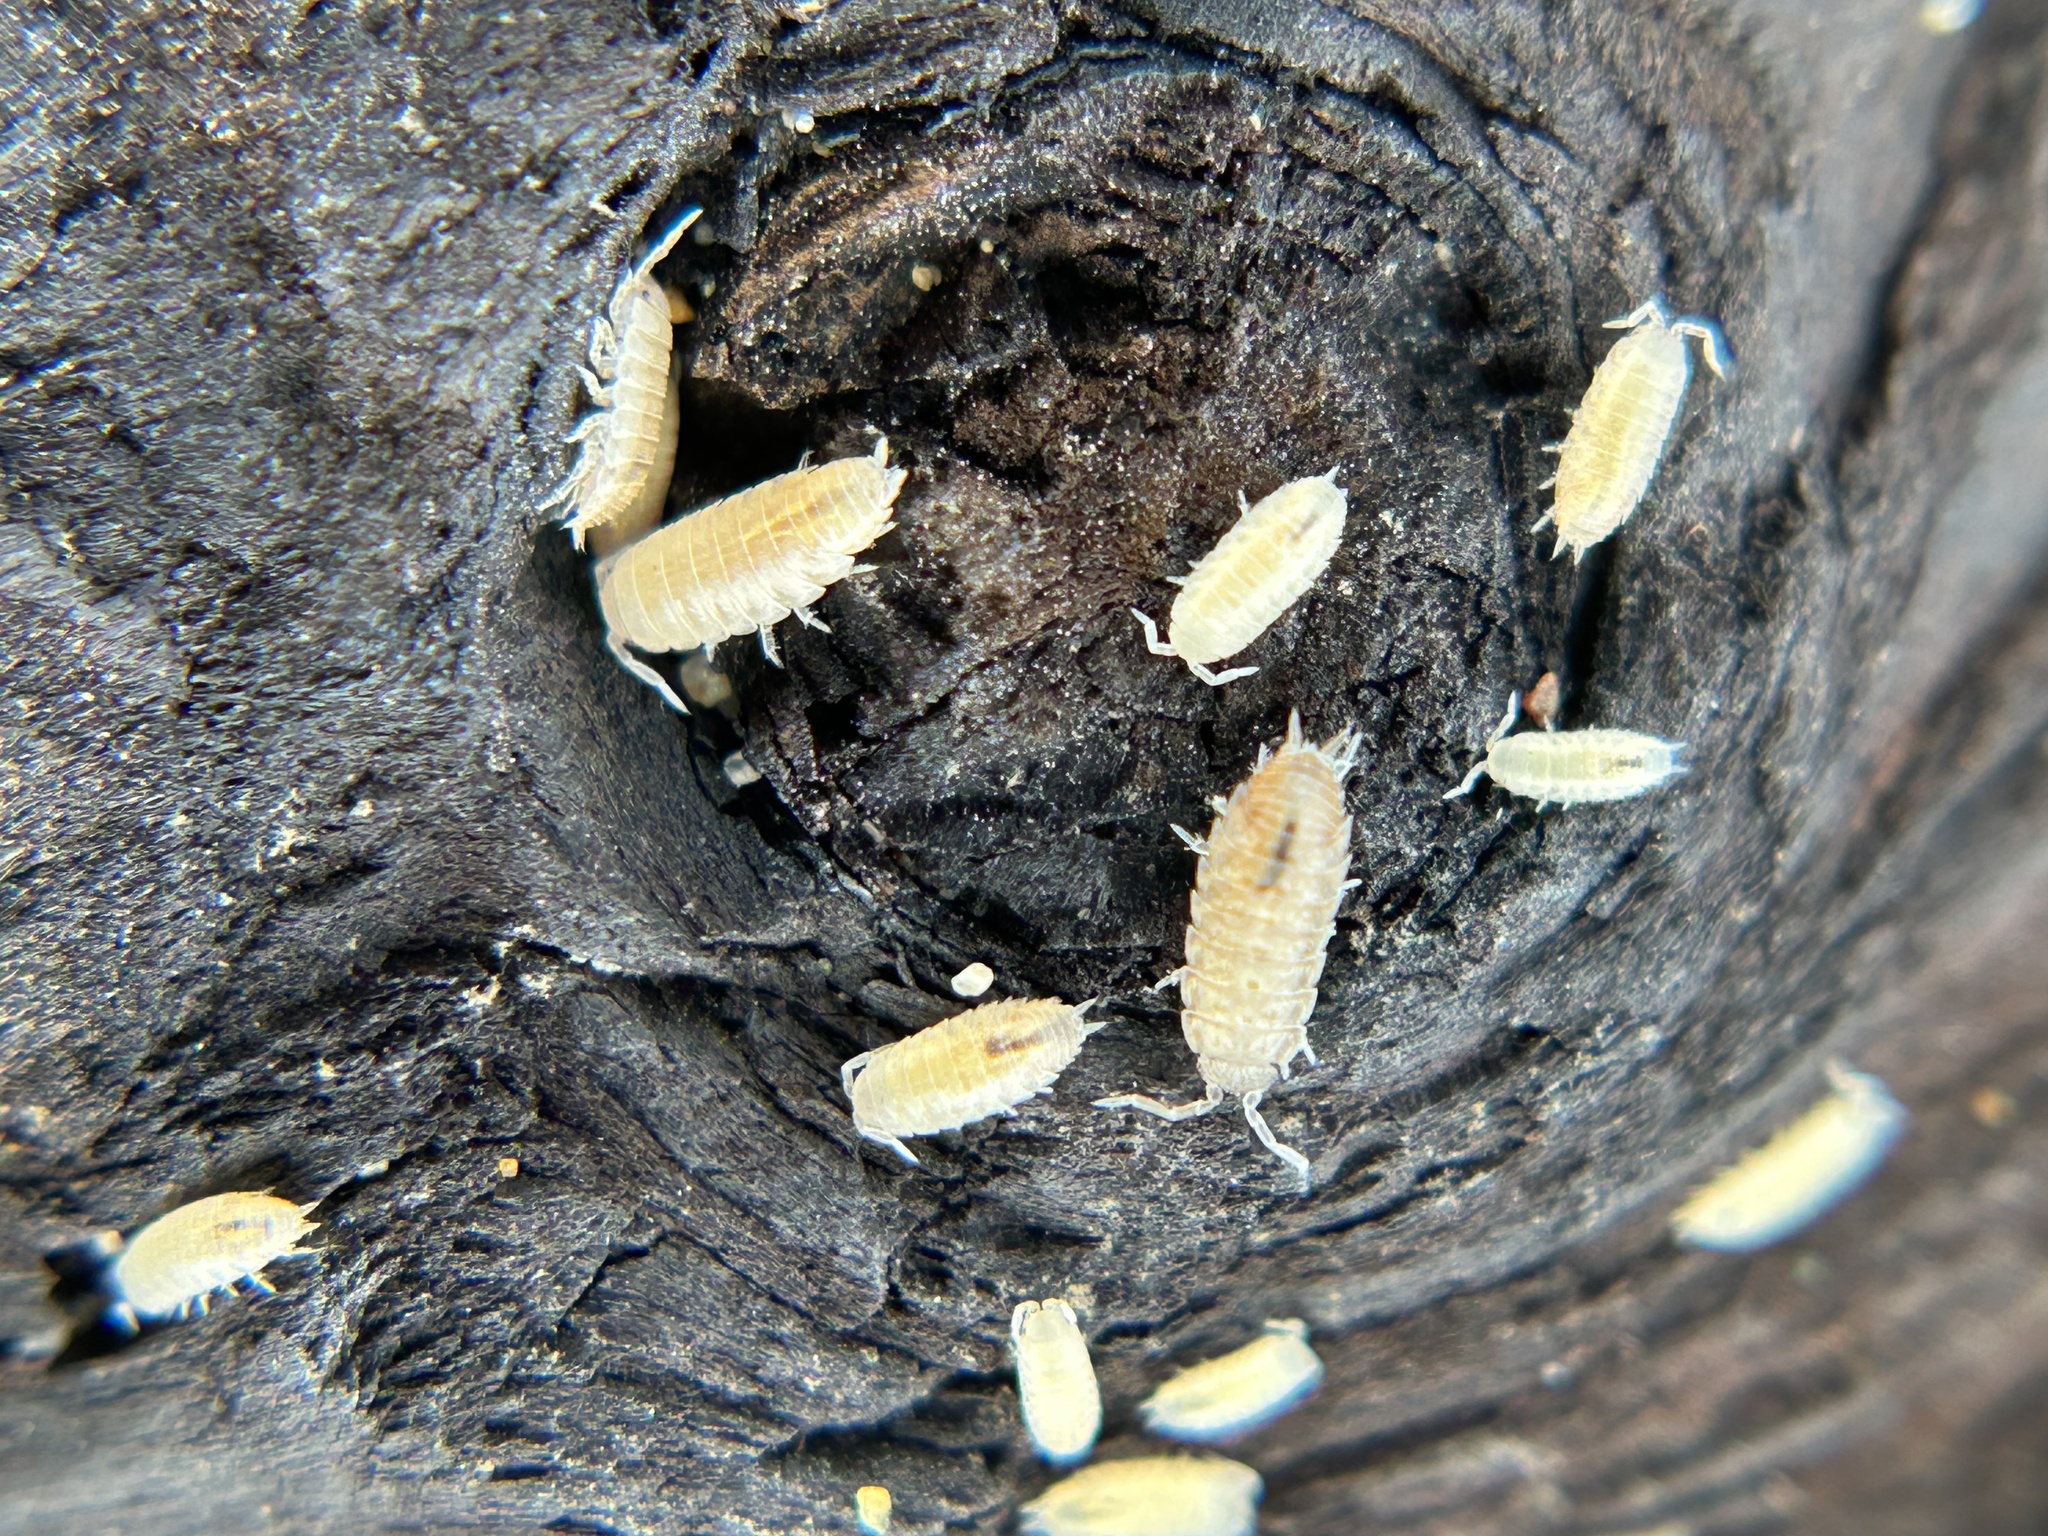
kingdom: Animalia
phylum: Arthropoda
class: Malacostraca
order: Isopoda
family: Platyarthridae
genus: Niambia
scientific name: Niambia capensis
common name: Isopod
